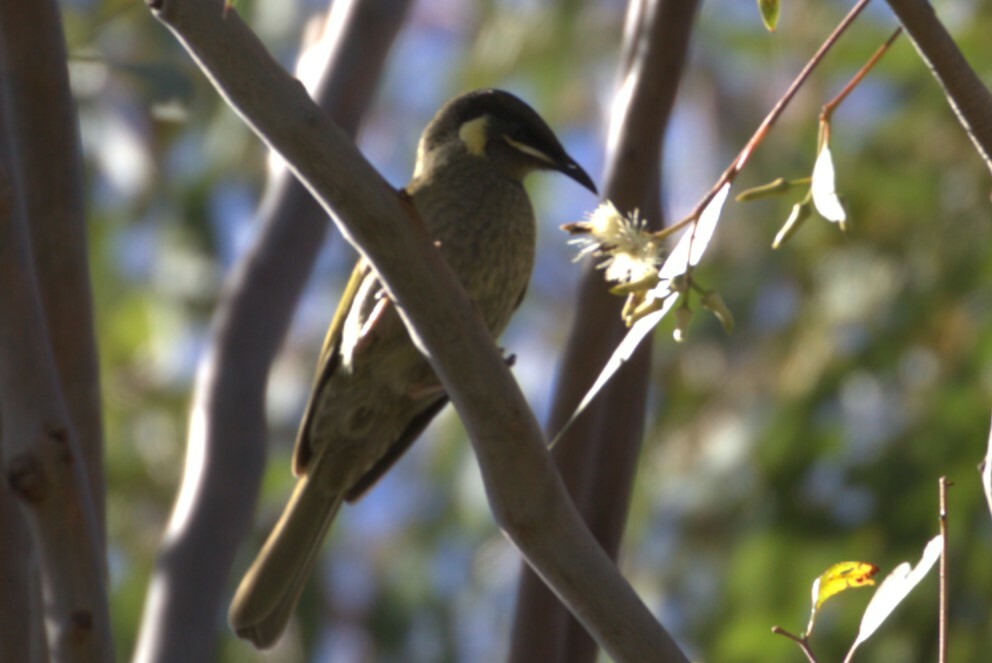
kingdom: Animalia
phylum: Chordata
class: Aves
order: Passeriformes
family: Meliphagidae
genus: Meliphaga
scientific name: Meliphaga lewinii
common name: Lewin's honeyeater
